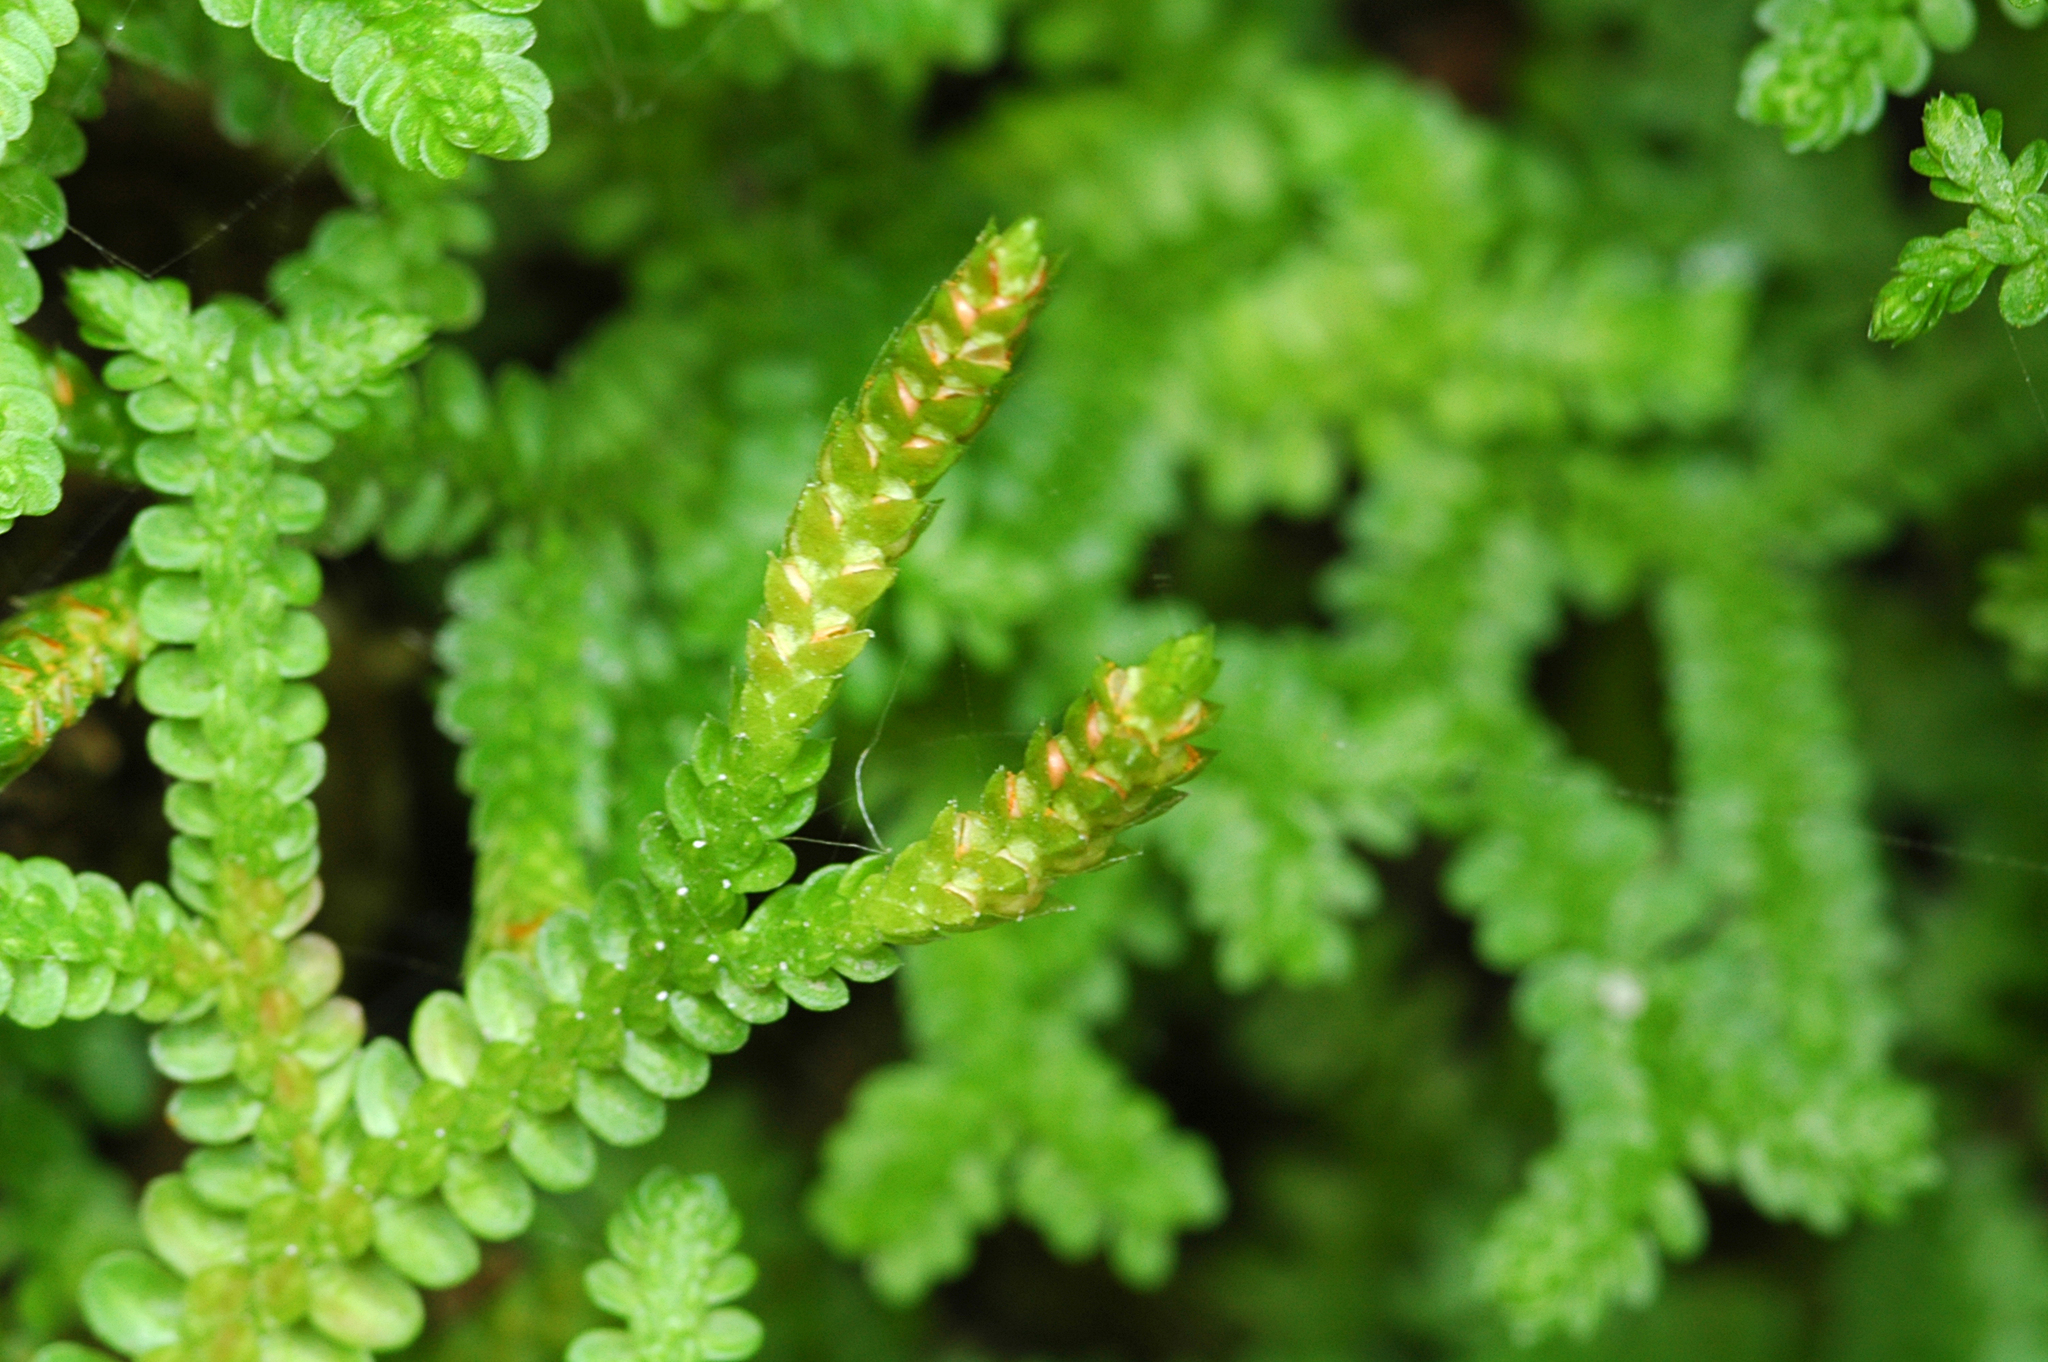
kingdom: Plantae
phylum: Tracheophyta
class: Lycopodiopsida
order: Selaginellales
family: Selaginellaceae
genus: Selaginella
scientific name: Selaginella douglasii
